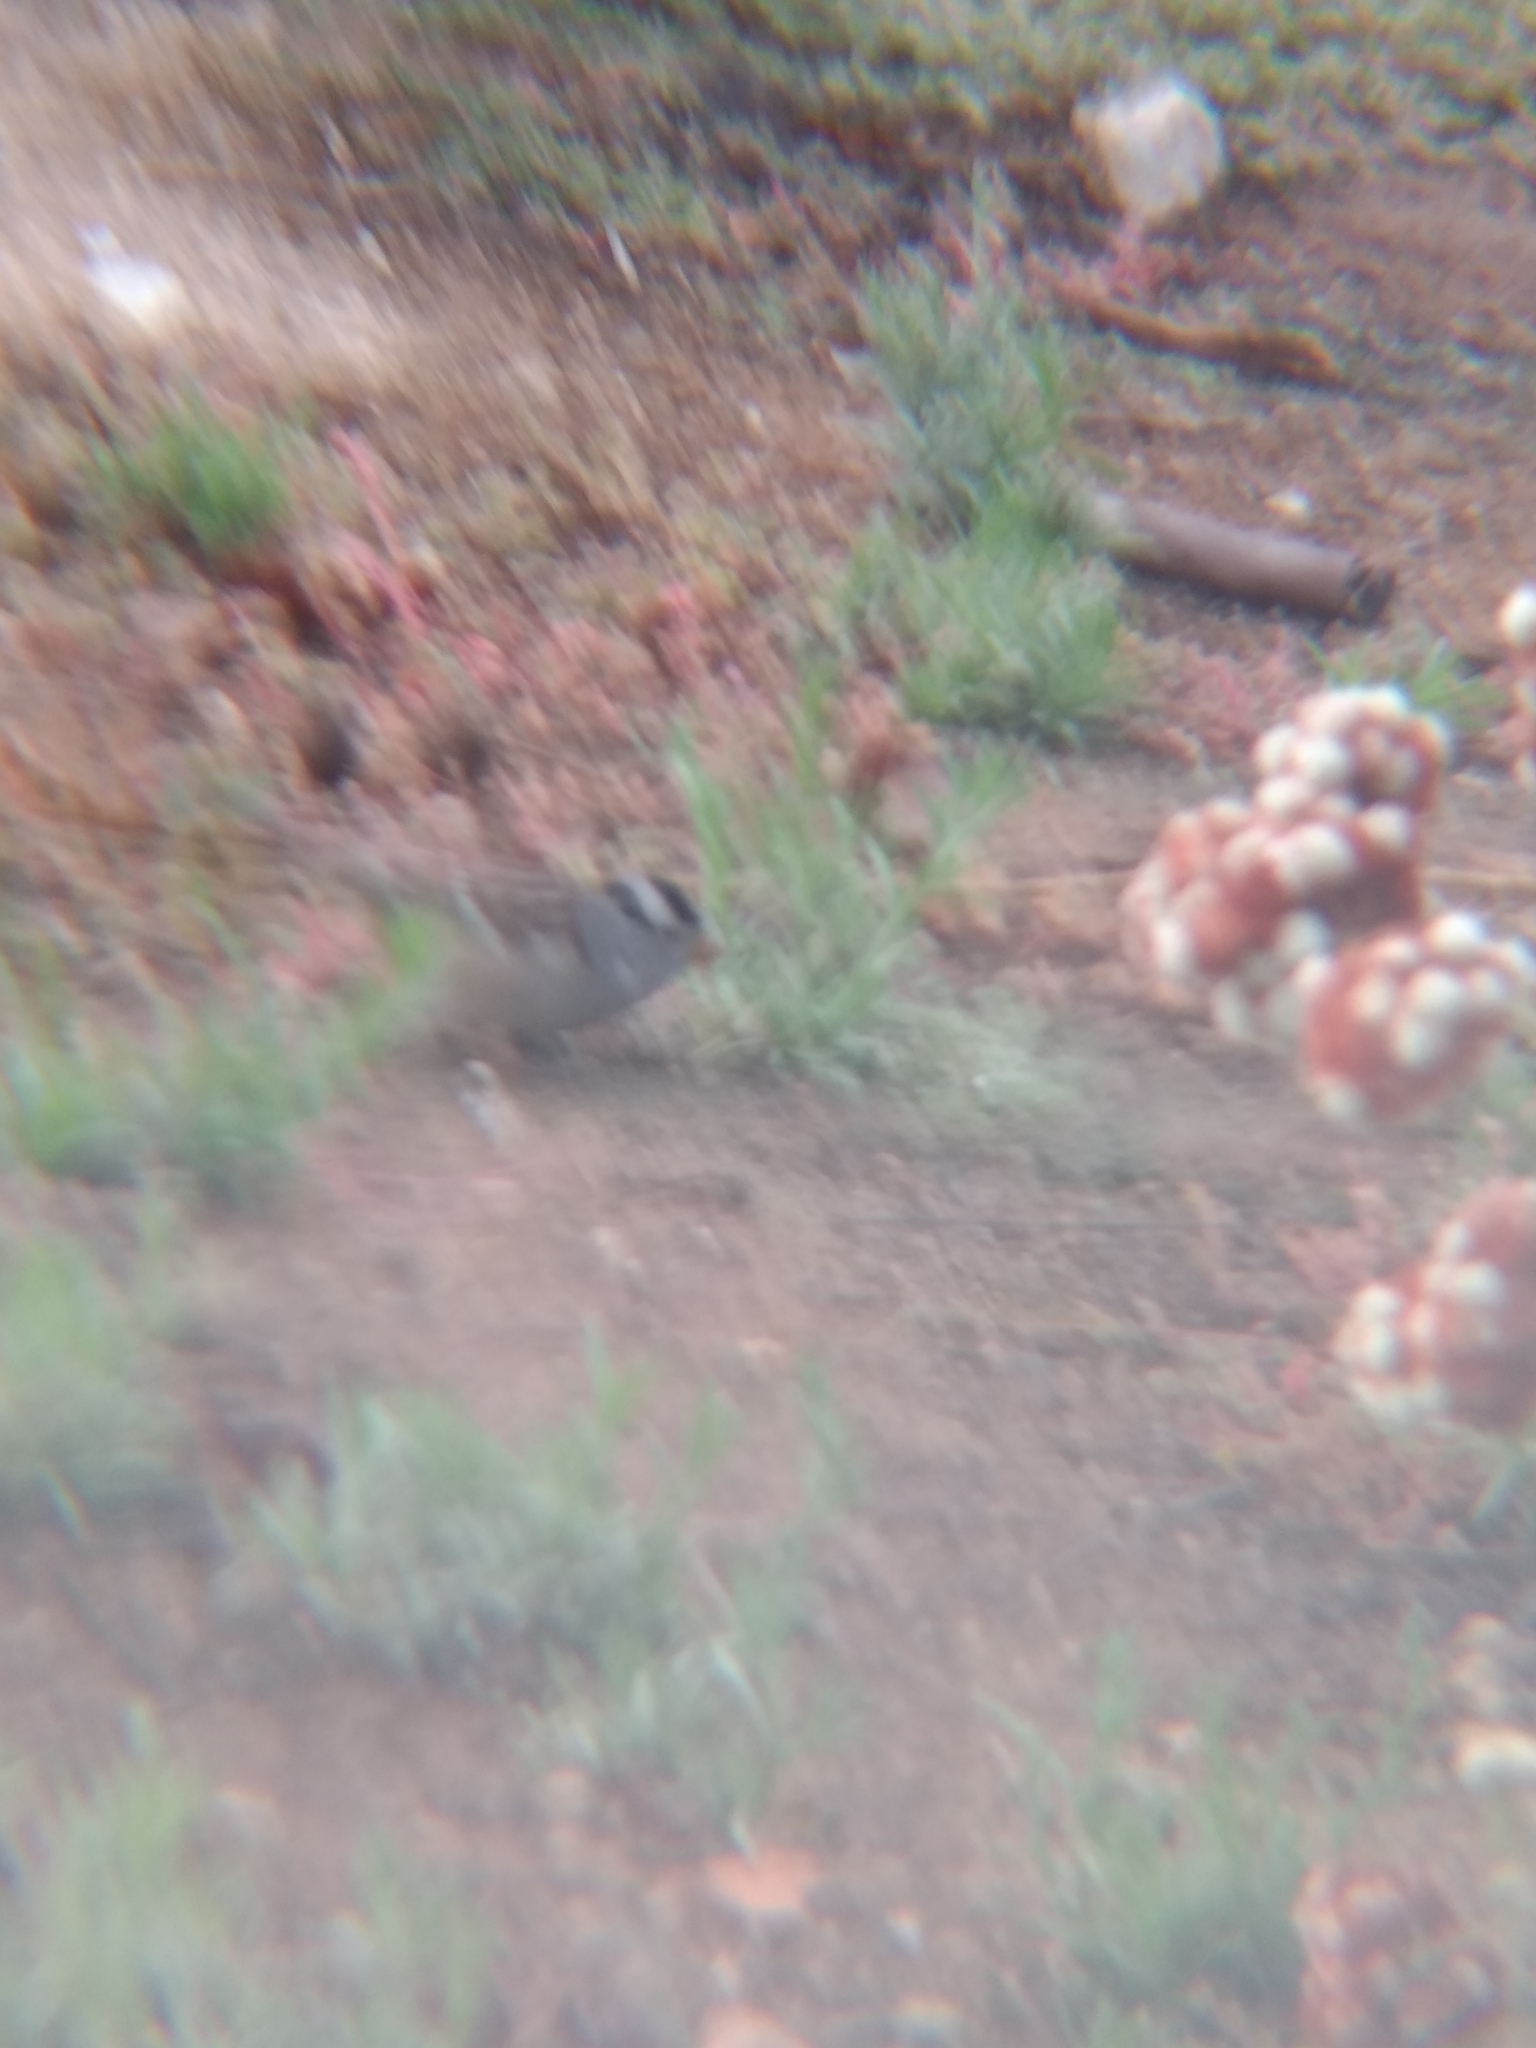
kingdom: Animalia
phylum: Chordata
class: Aves
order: Passeriformes
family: Passerellidae
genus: Zonotrichia
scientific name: Zonotrichia leucophrys
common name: White-crowned sparrow
